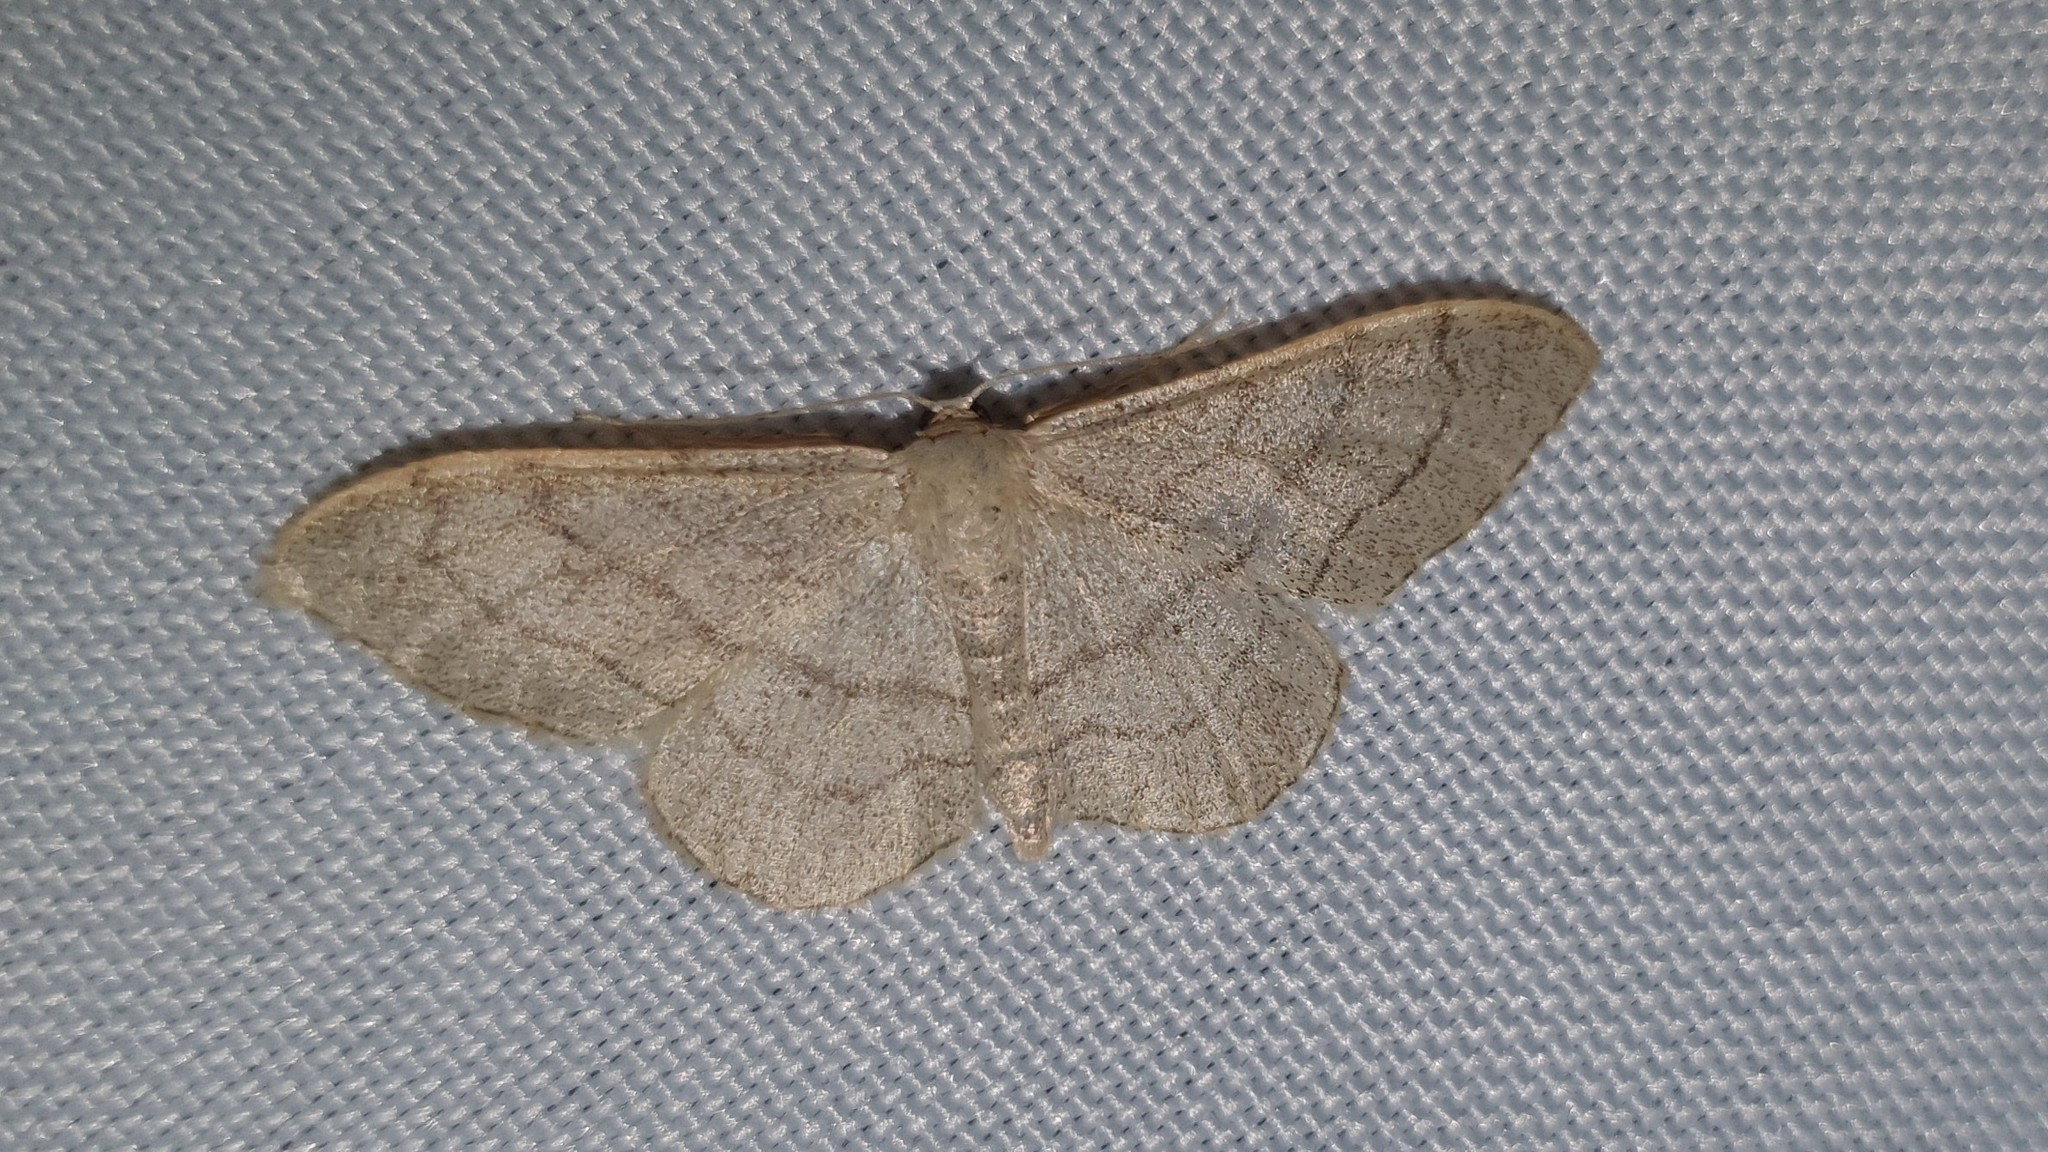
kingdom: Animalia
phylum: Arthropoda
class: Insecta
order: Lepidoptera
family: Geometridae
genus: Idaea
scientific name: Idaea aversata
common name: Riband wave
